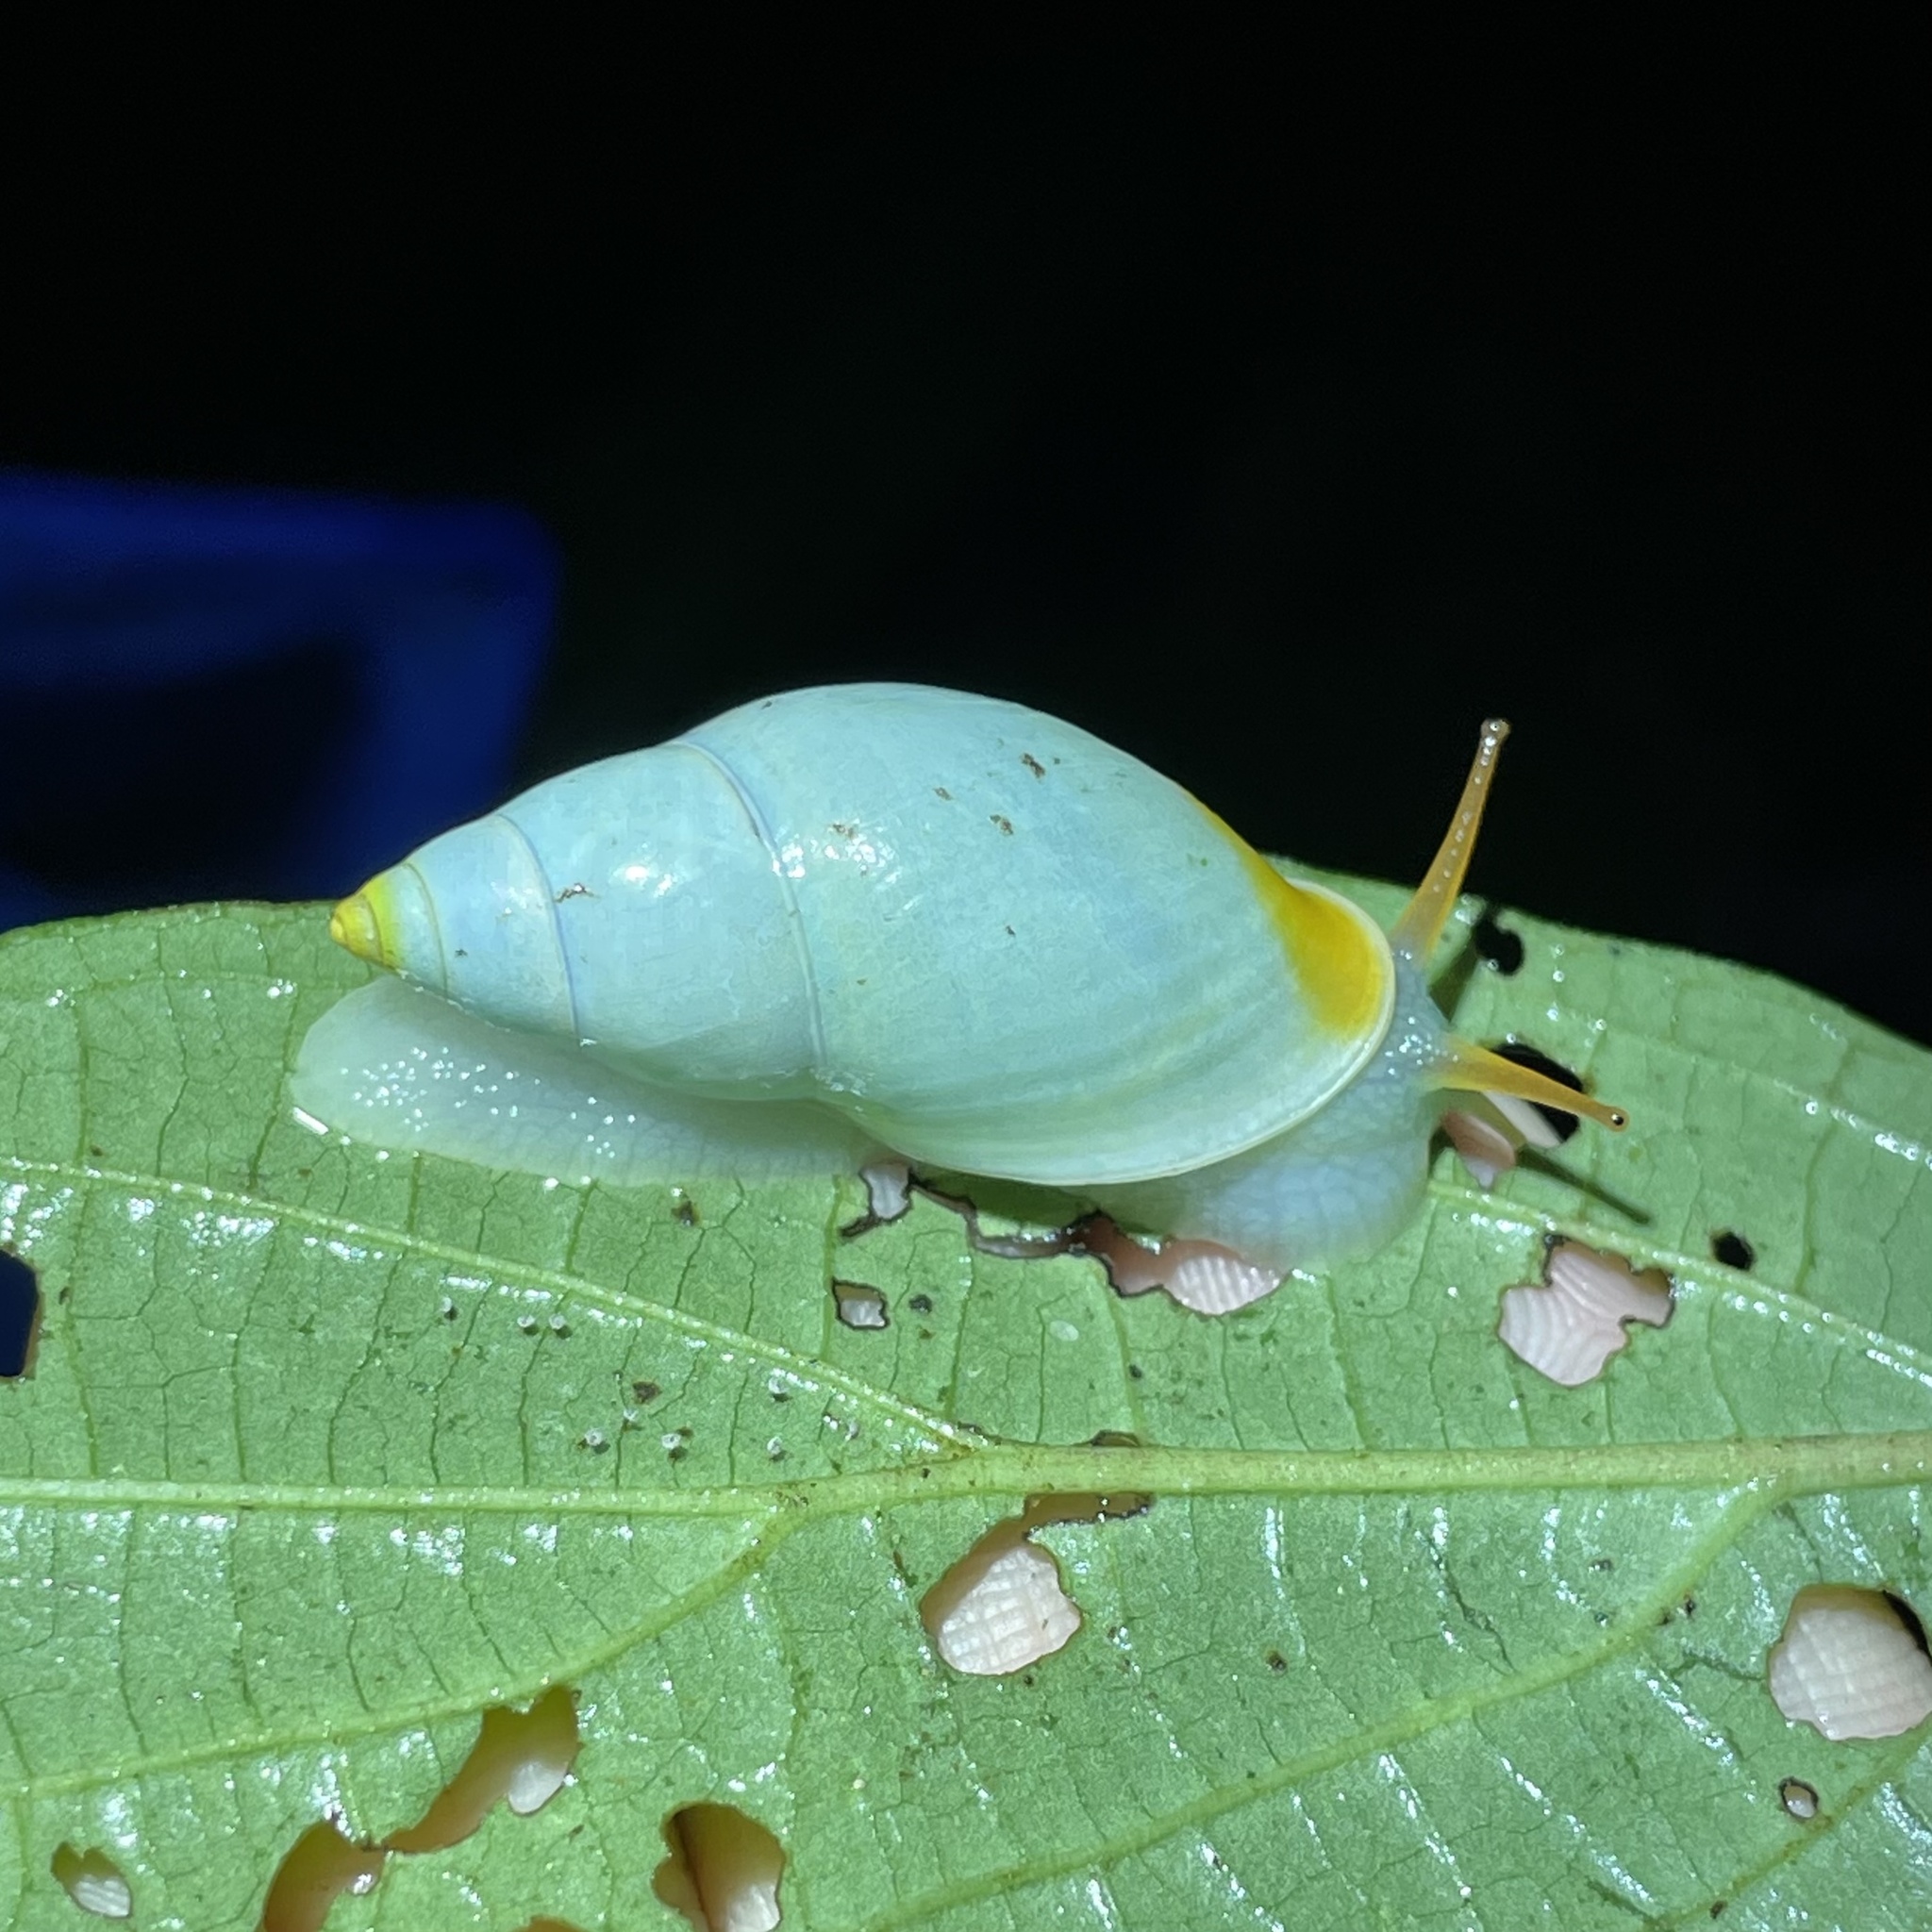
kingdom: Animalia
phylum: Mollusca
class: Gastropoda
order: Stylommatophora
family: Bulimulidae
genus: Drymaeus
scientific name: Drymaeus
